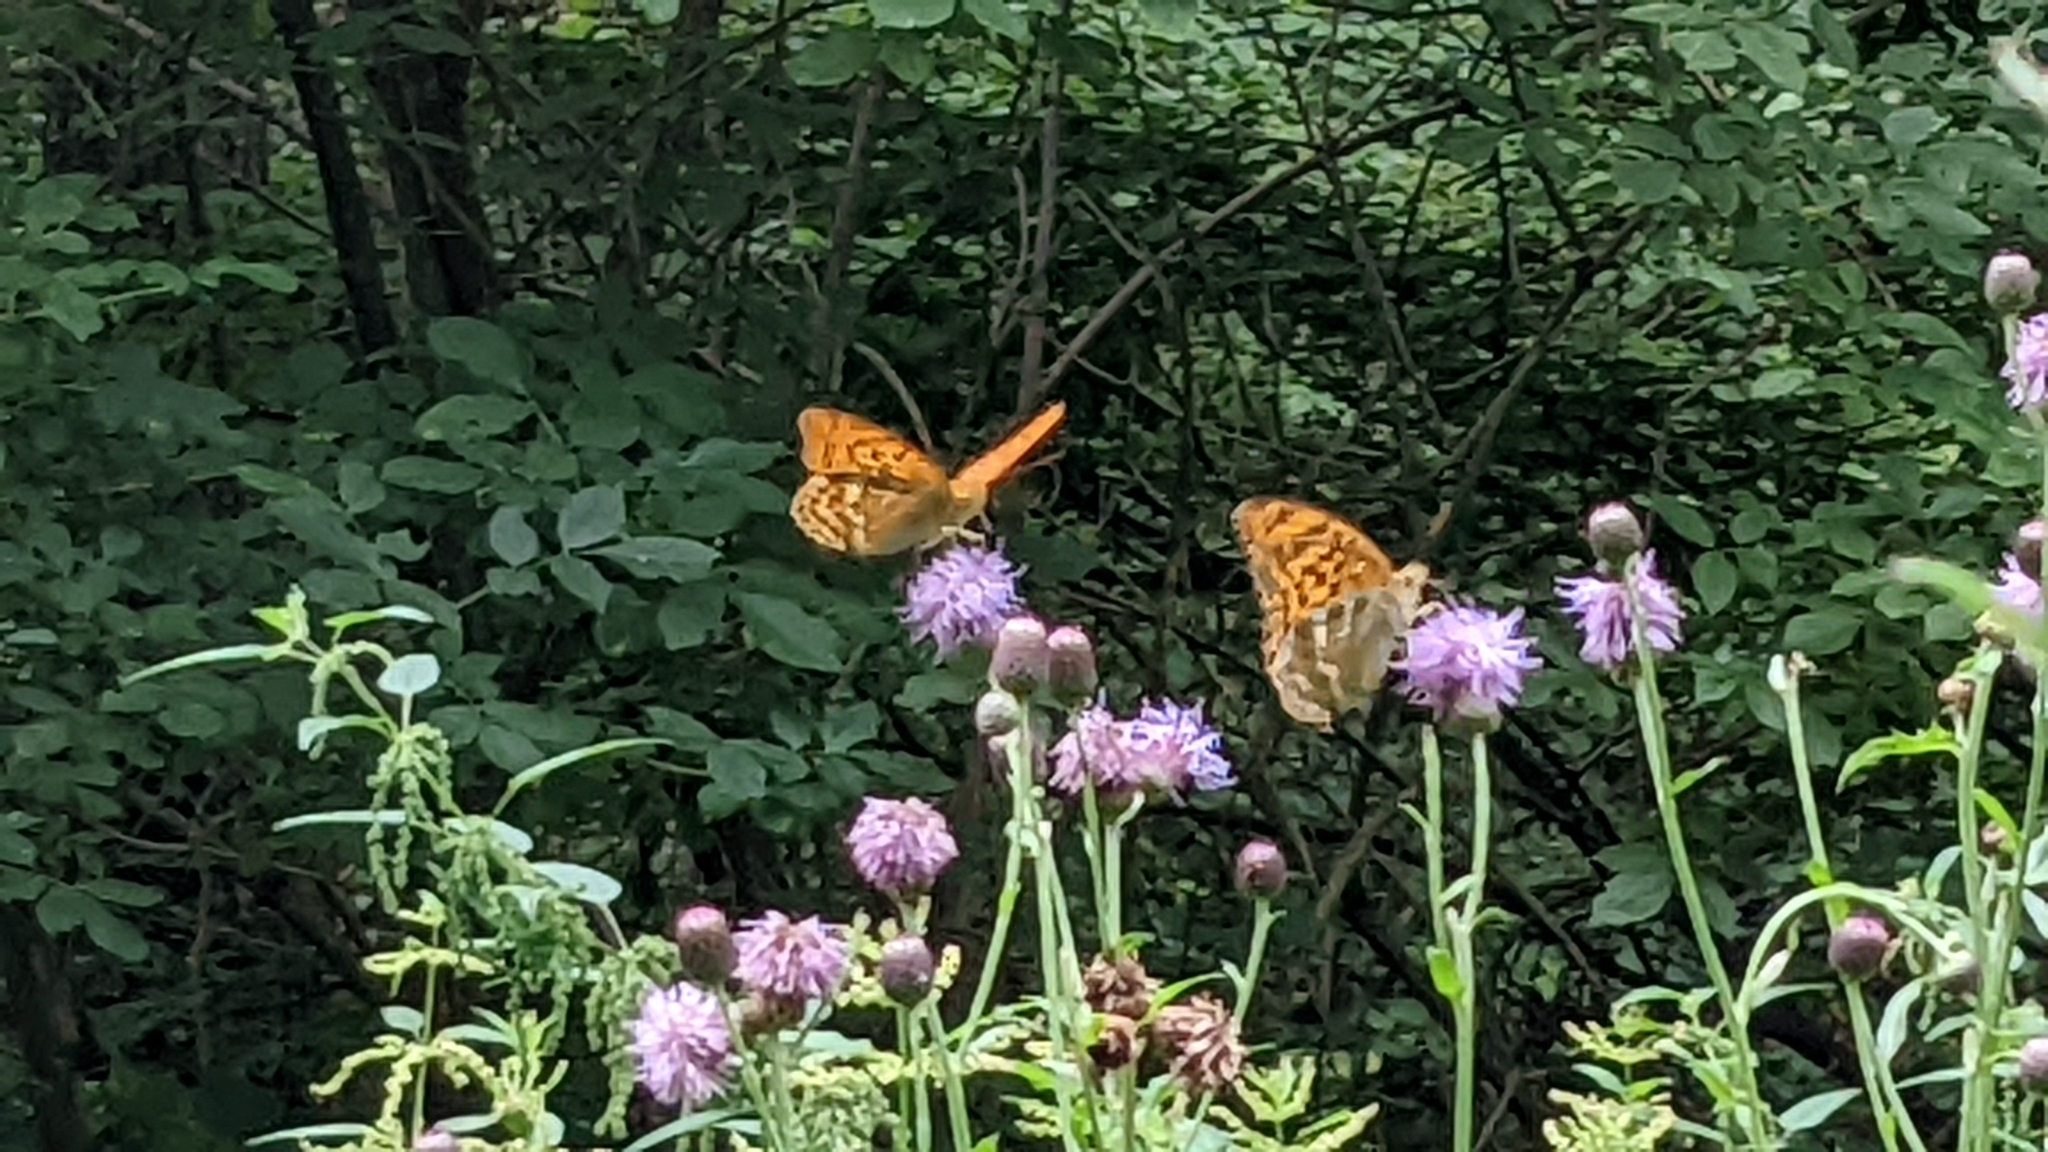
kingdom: Animalia
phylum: Arthropoda
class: Insecta
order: Lepidoptera
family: Nymphalidae
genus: Argynnis
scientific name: Argynnis paphia
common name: Silver-washed fritillary
